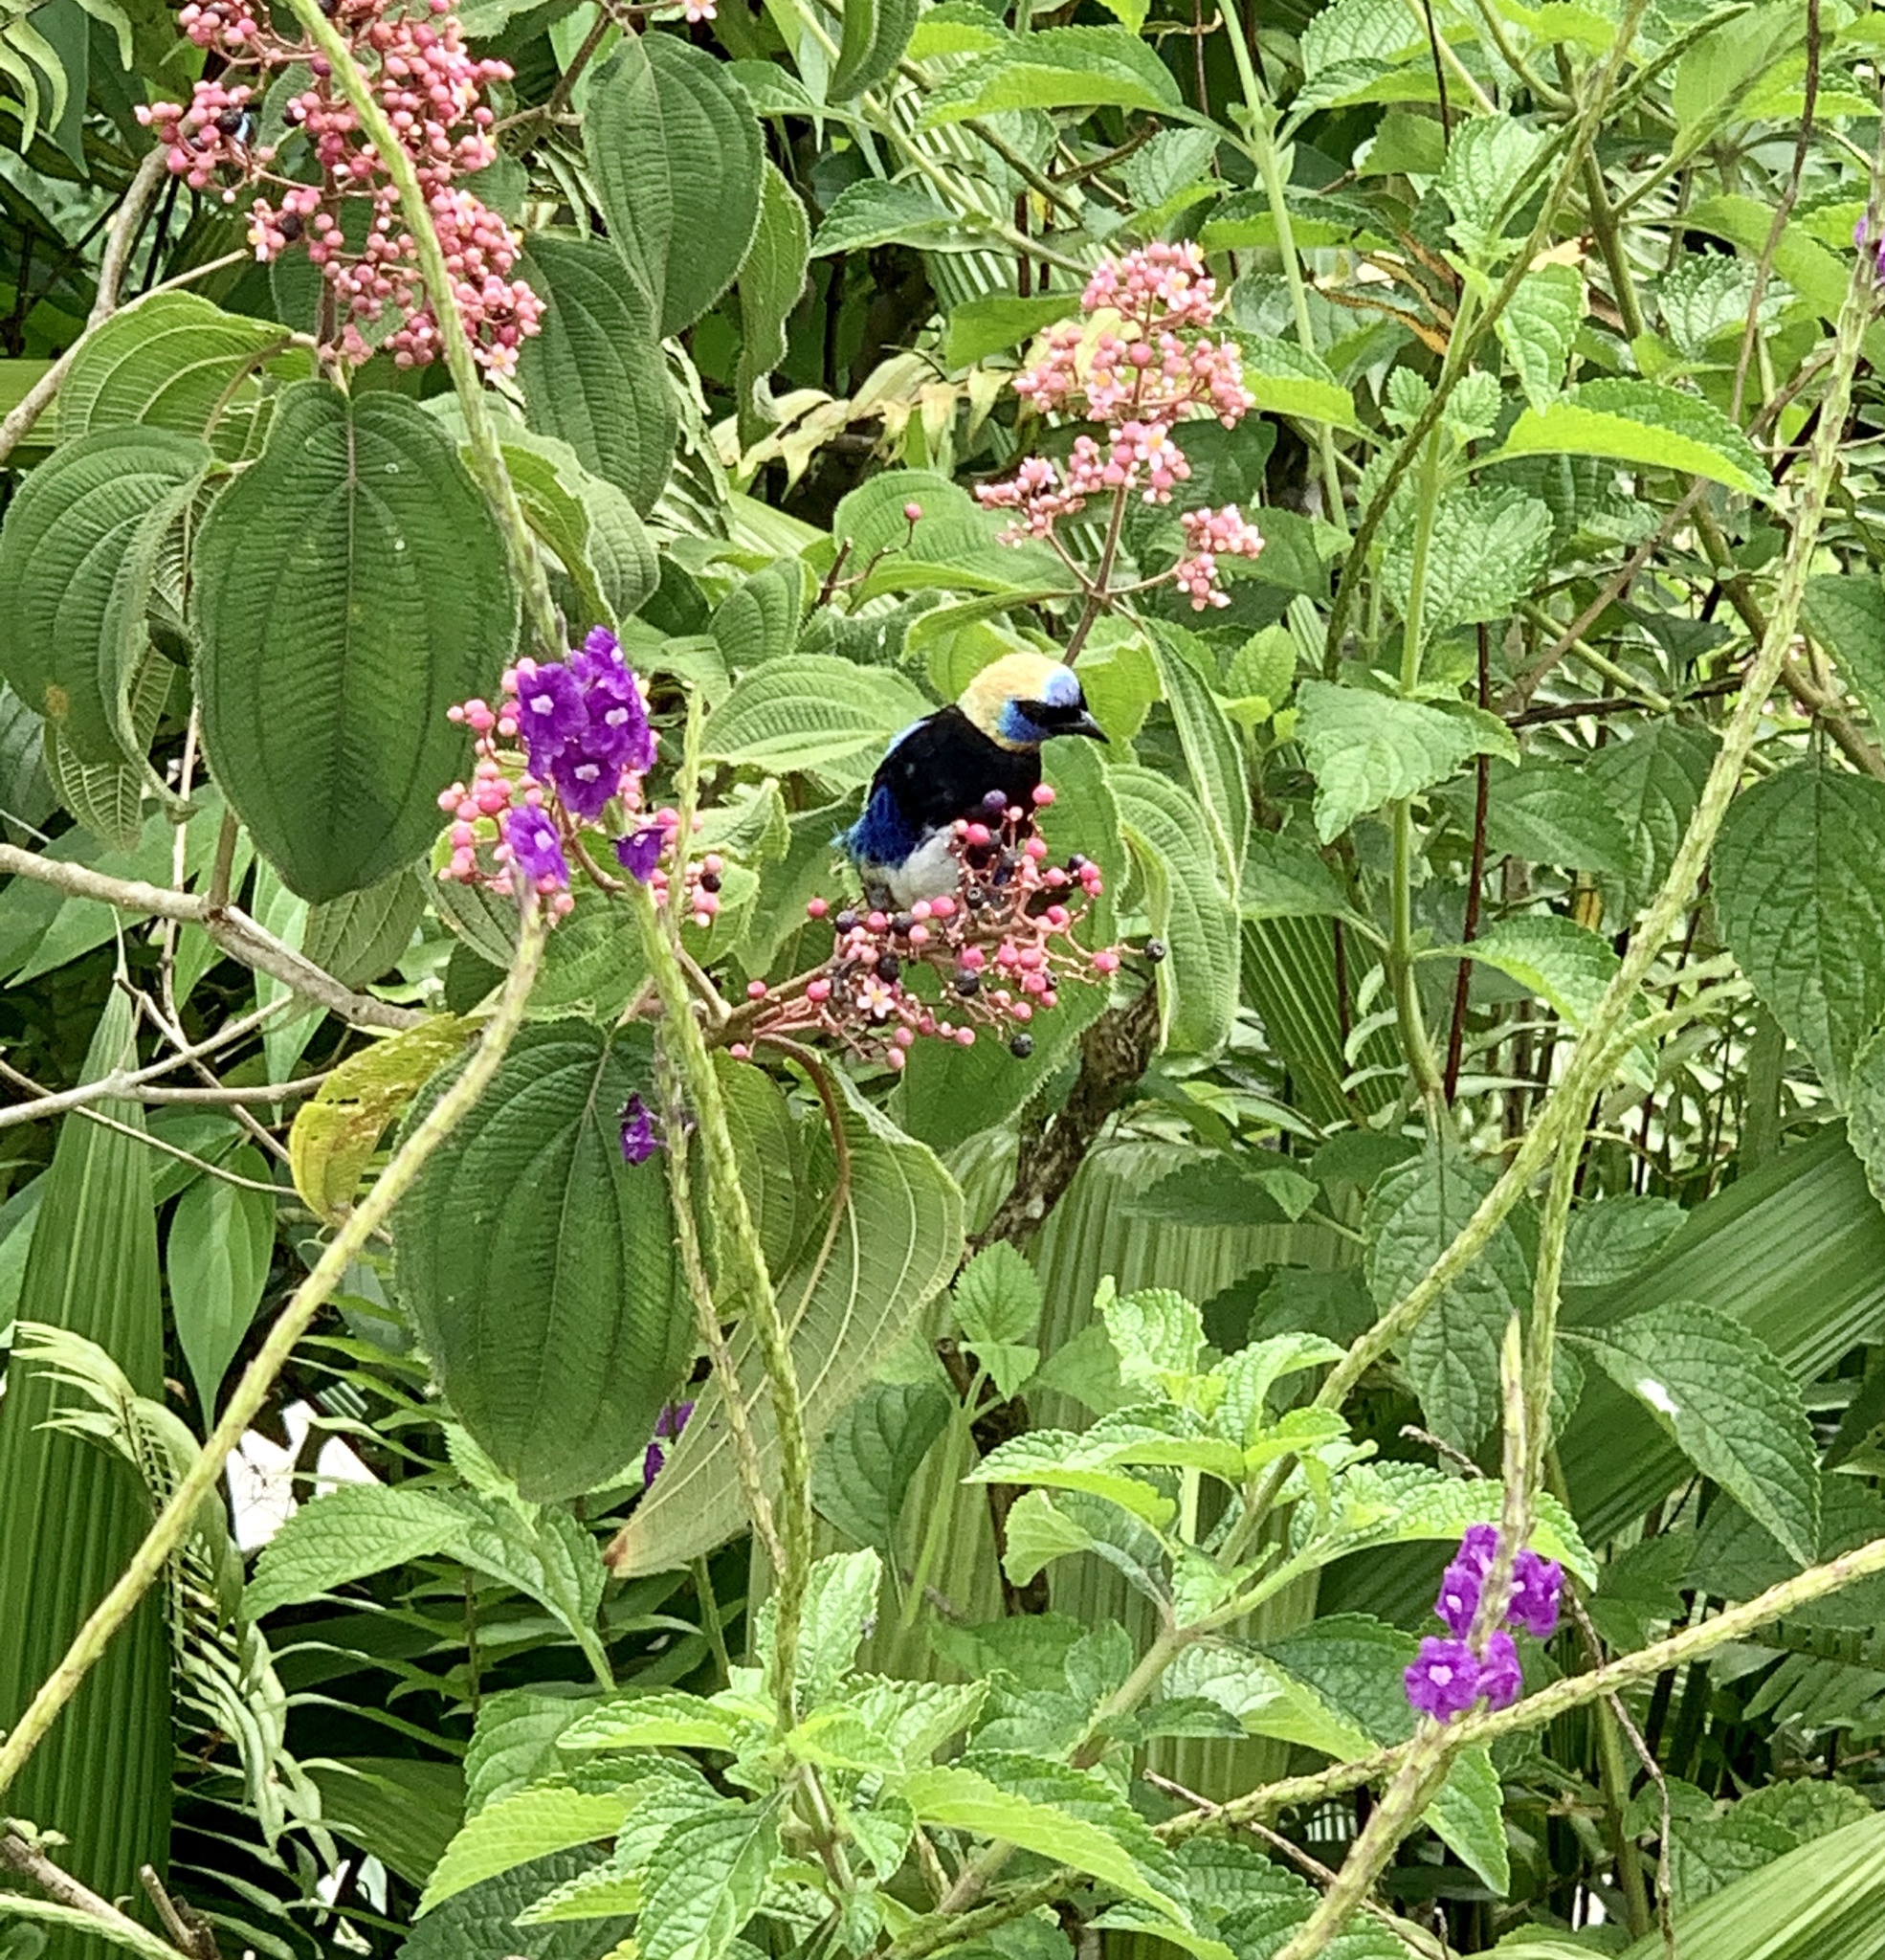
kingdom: Animalia
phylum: Chordata
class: Aves
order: Passeriformes
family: Thraupidae
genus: Stilpnia
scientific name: Stilpnia larvata
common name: Golden-hooded tanager
